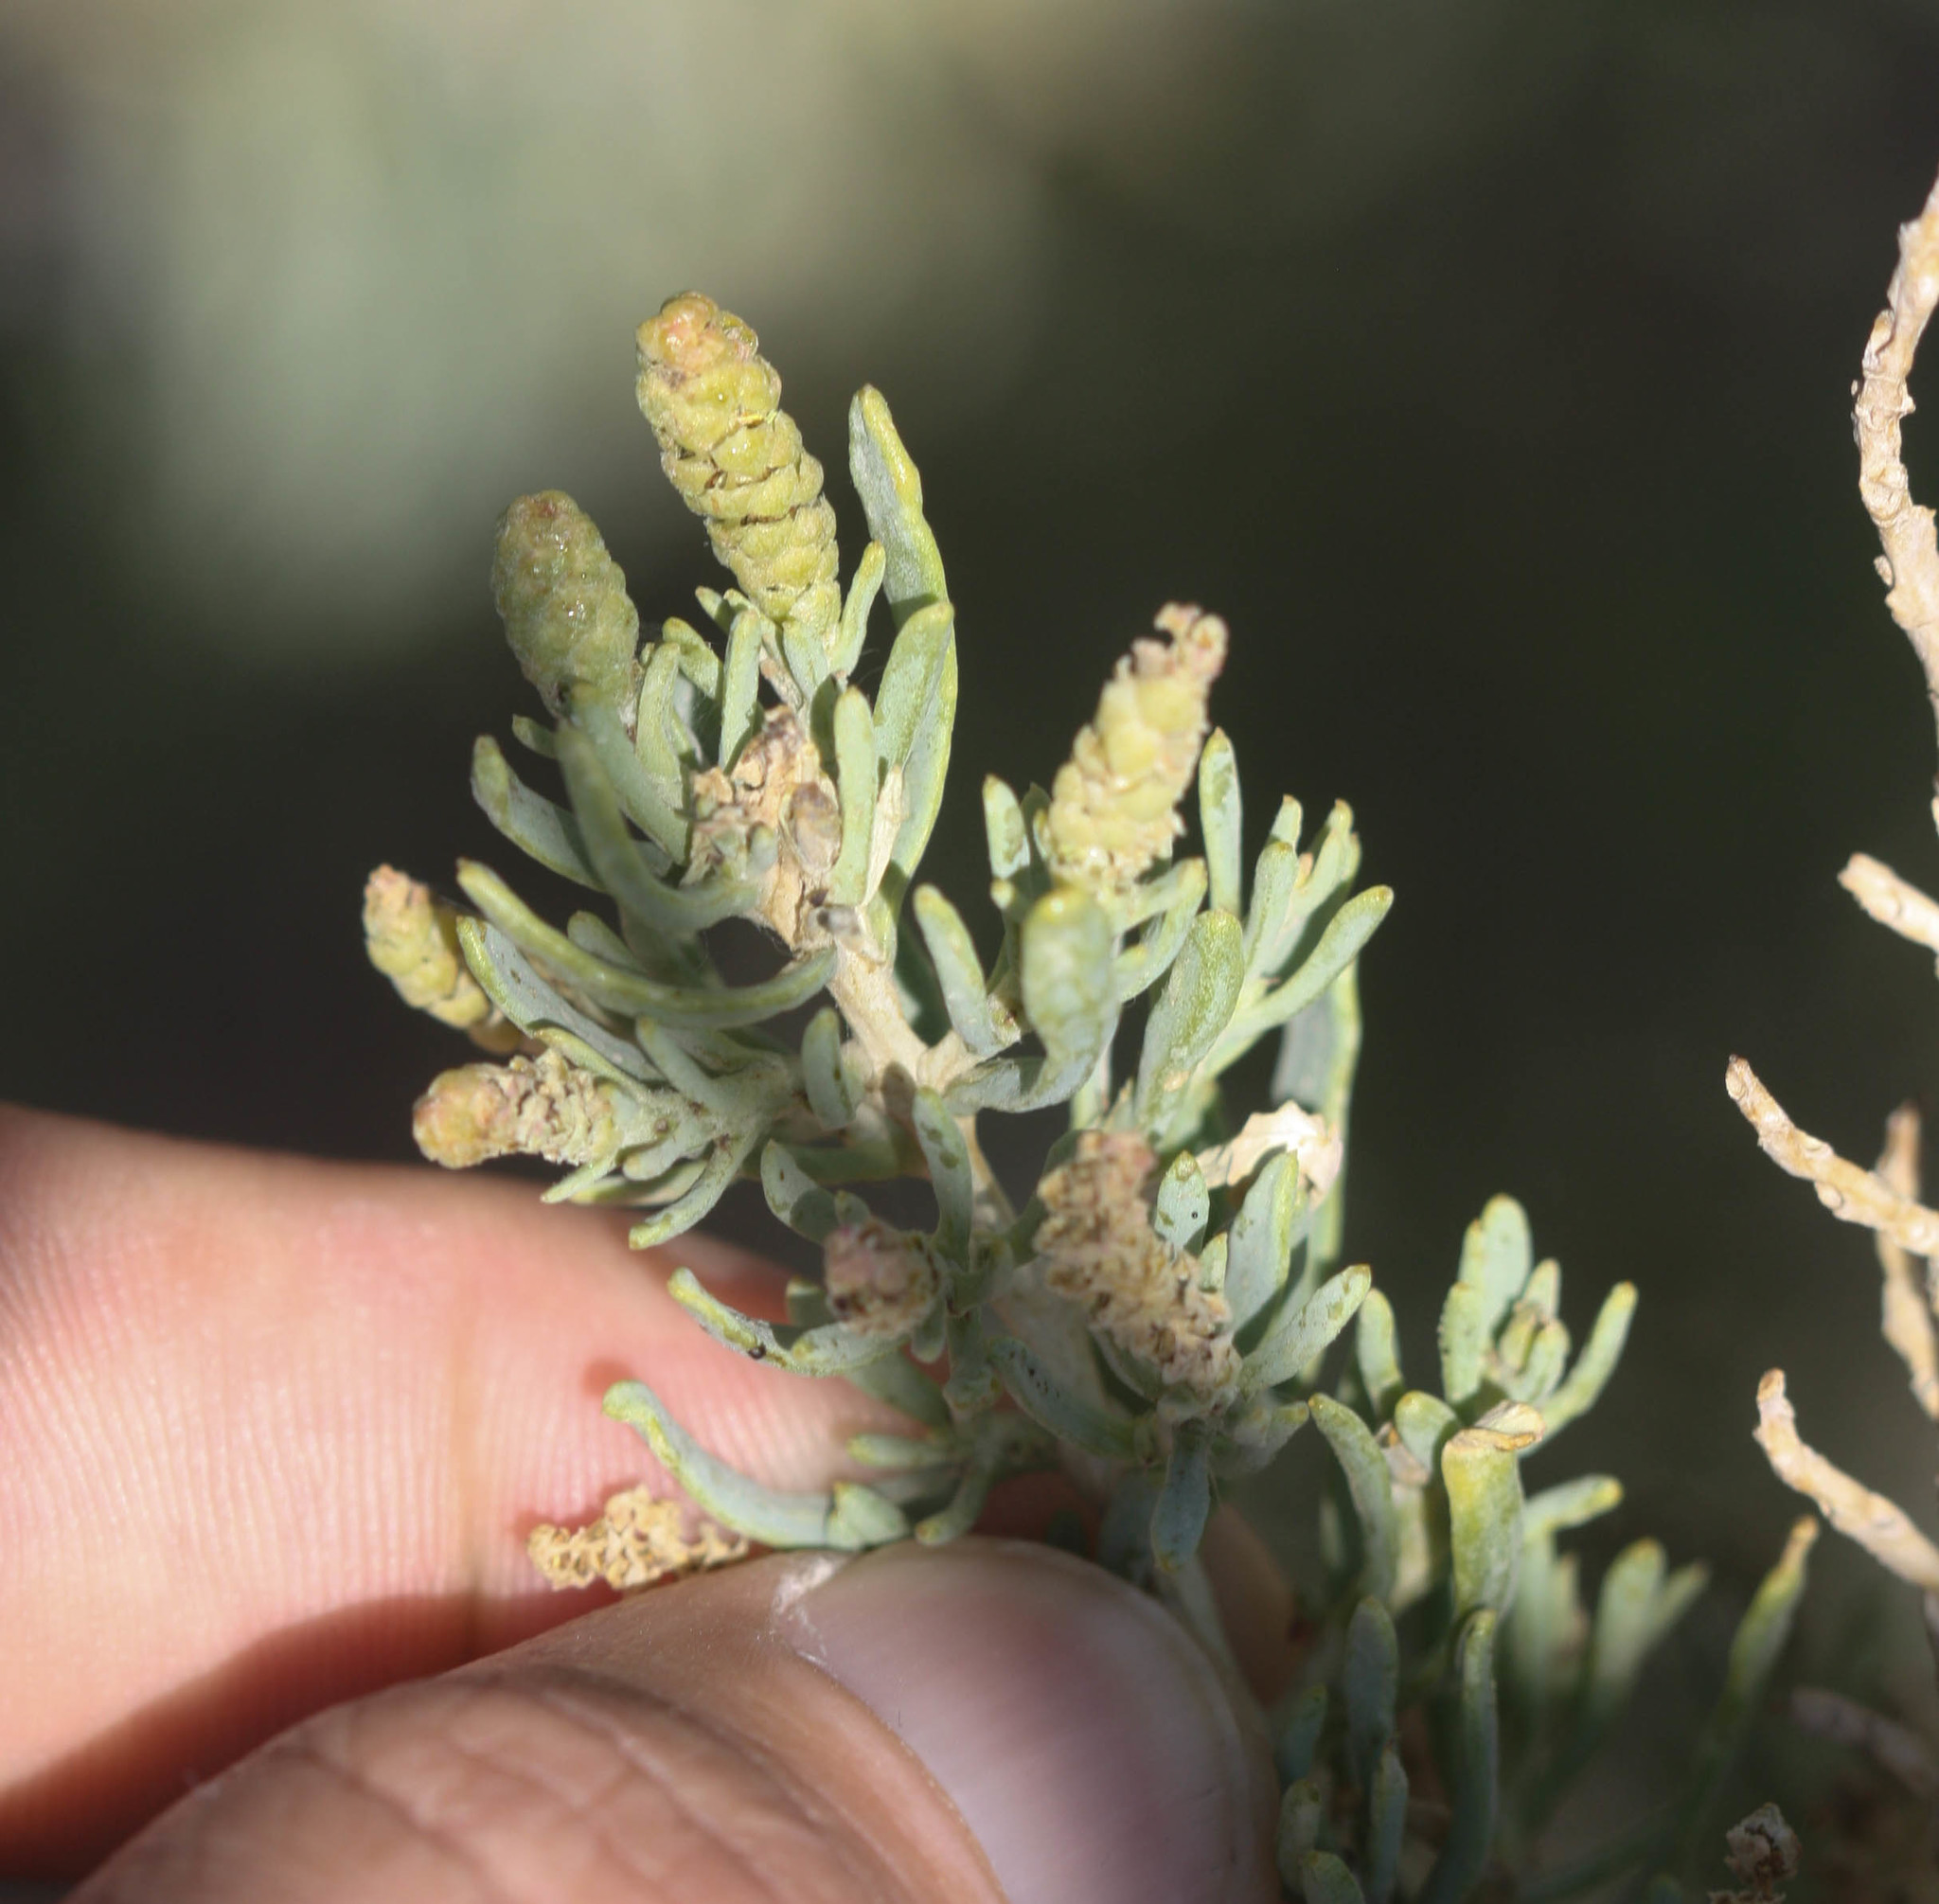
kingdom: Plantae
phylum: Tracheophyta
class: Magnoliopsida
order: Caryophyllales
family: Sarcobataceae
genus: Sarcobatus
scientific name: Sarcobatus vermiculatus
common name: Greasewood
